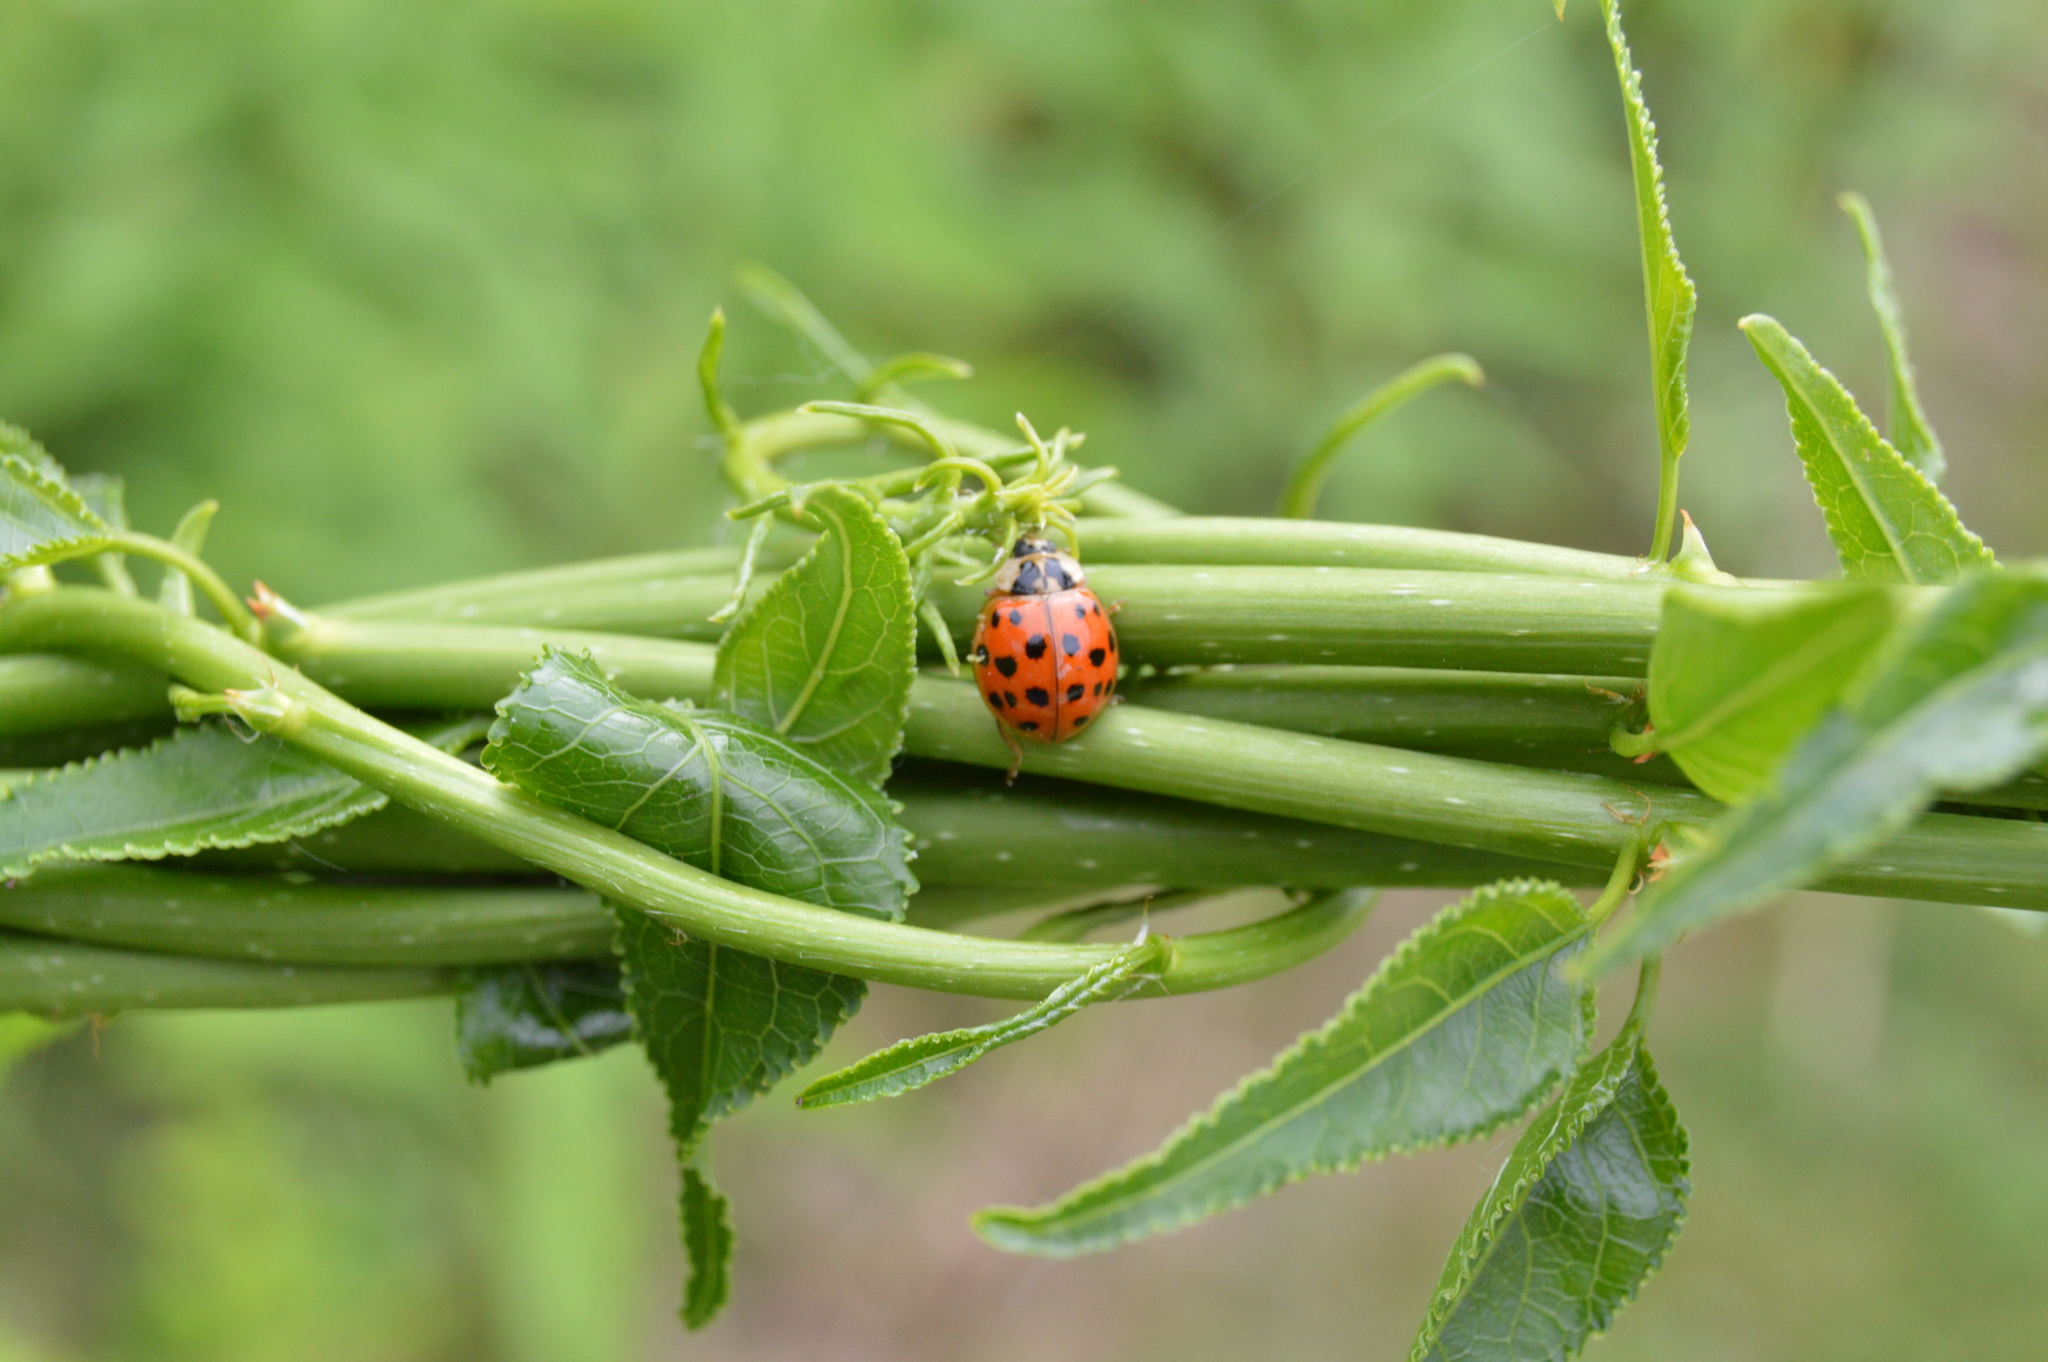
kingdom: Animalia
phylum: Arthropoda
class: Insecta
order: Coleoptera
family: Coccinellidae
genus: Harmonia
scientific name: Harmonia axyridis
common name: Harlequin ladybird
